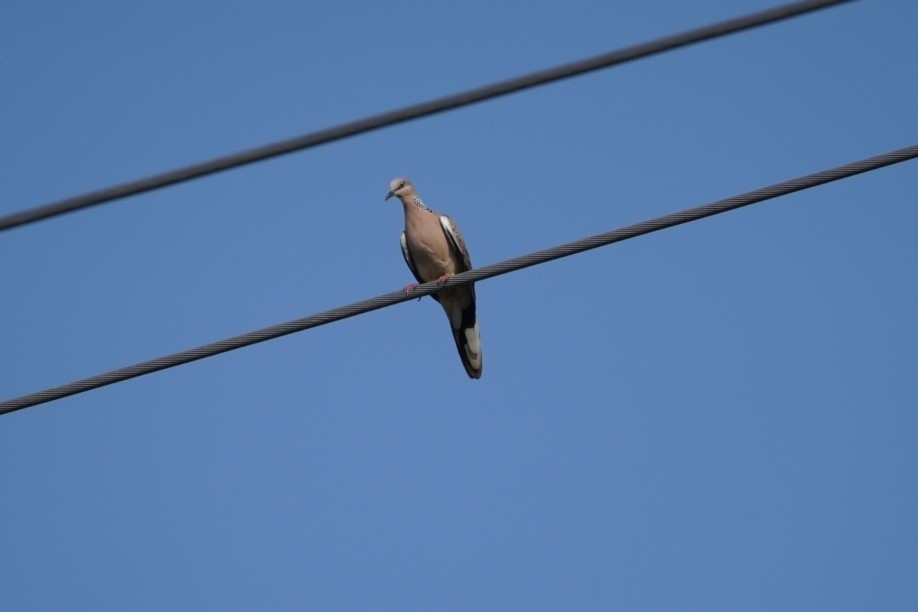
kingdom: Animalia
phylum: Chordata
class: Aves
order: Columbiformes
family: Columbidae
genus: Spilopelia
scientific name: Spilopelia chinensis
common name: Spotted dove
